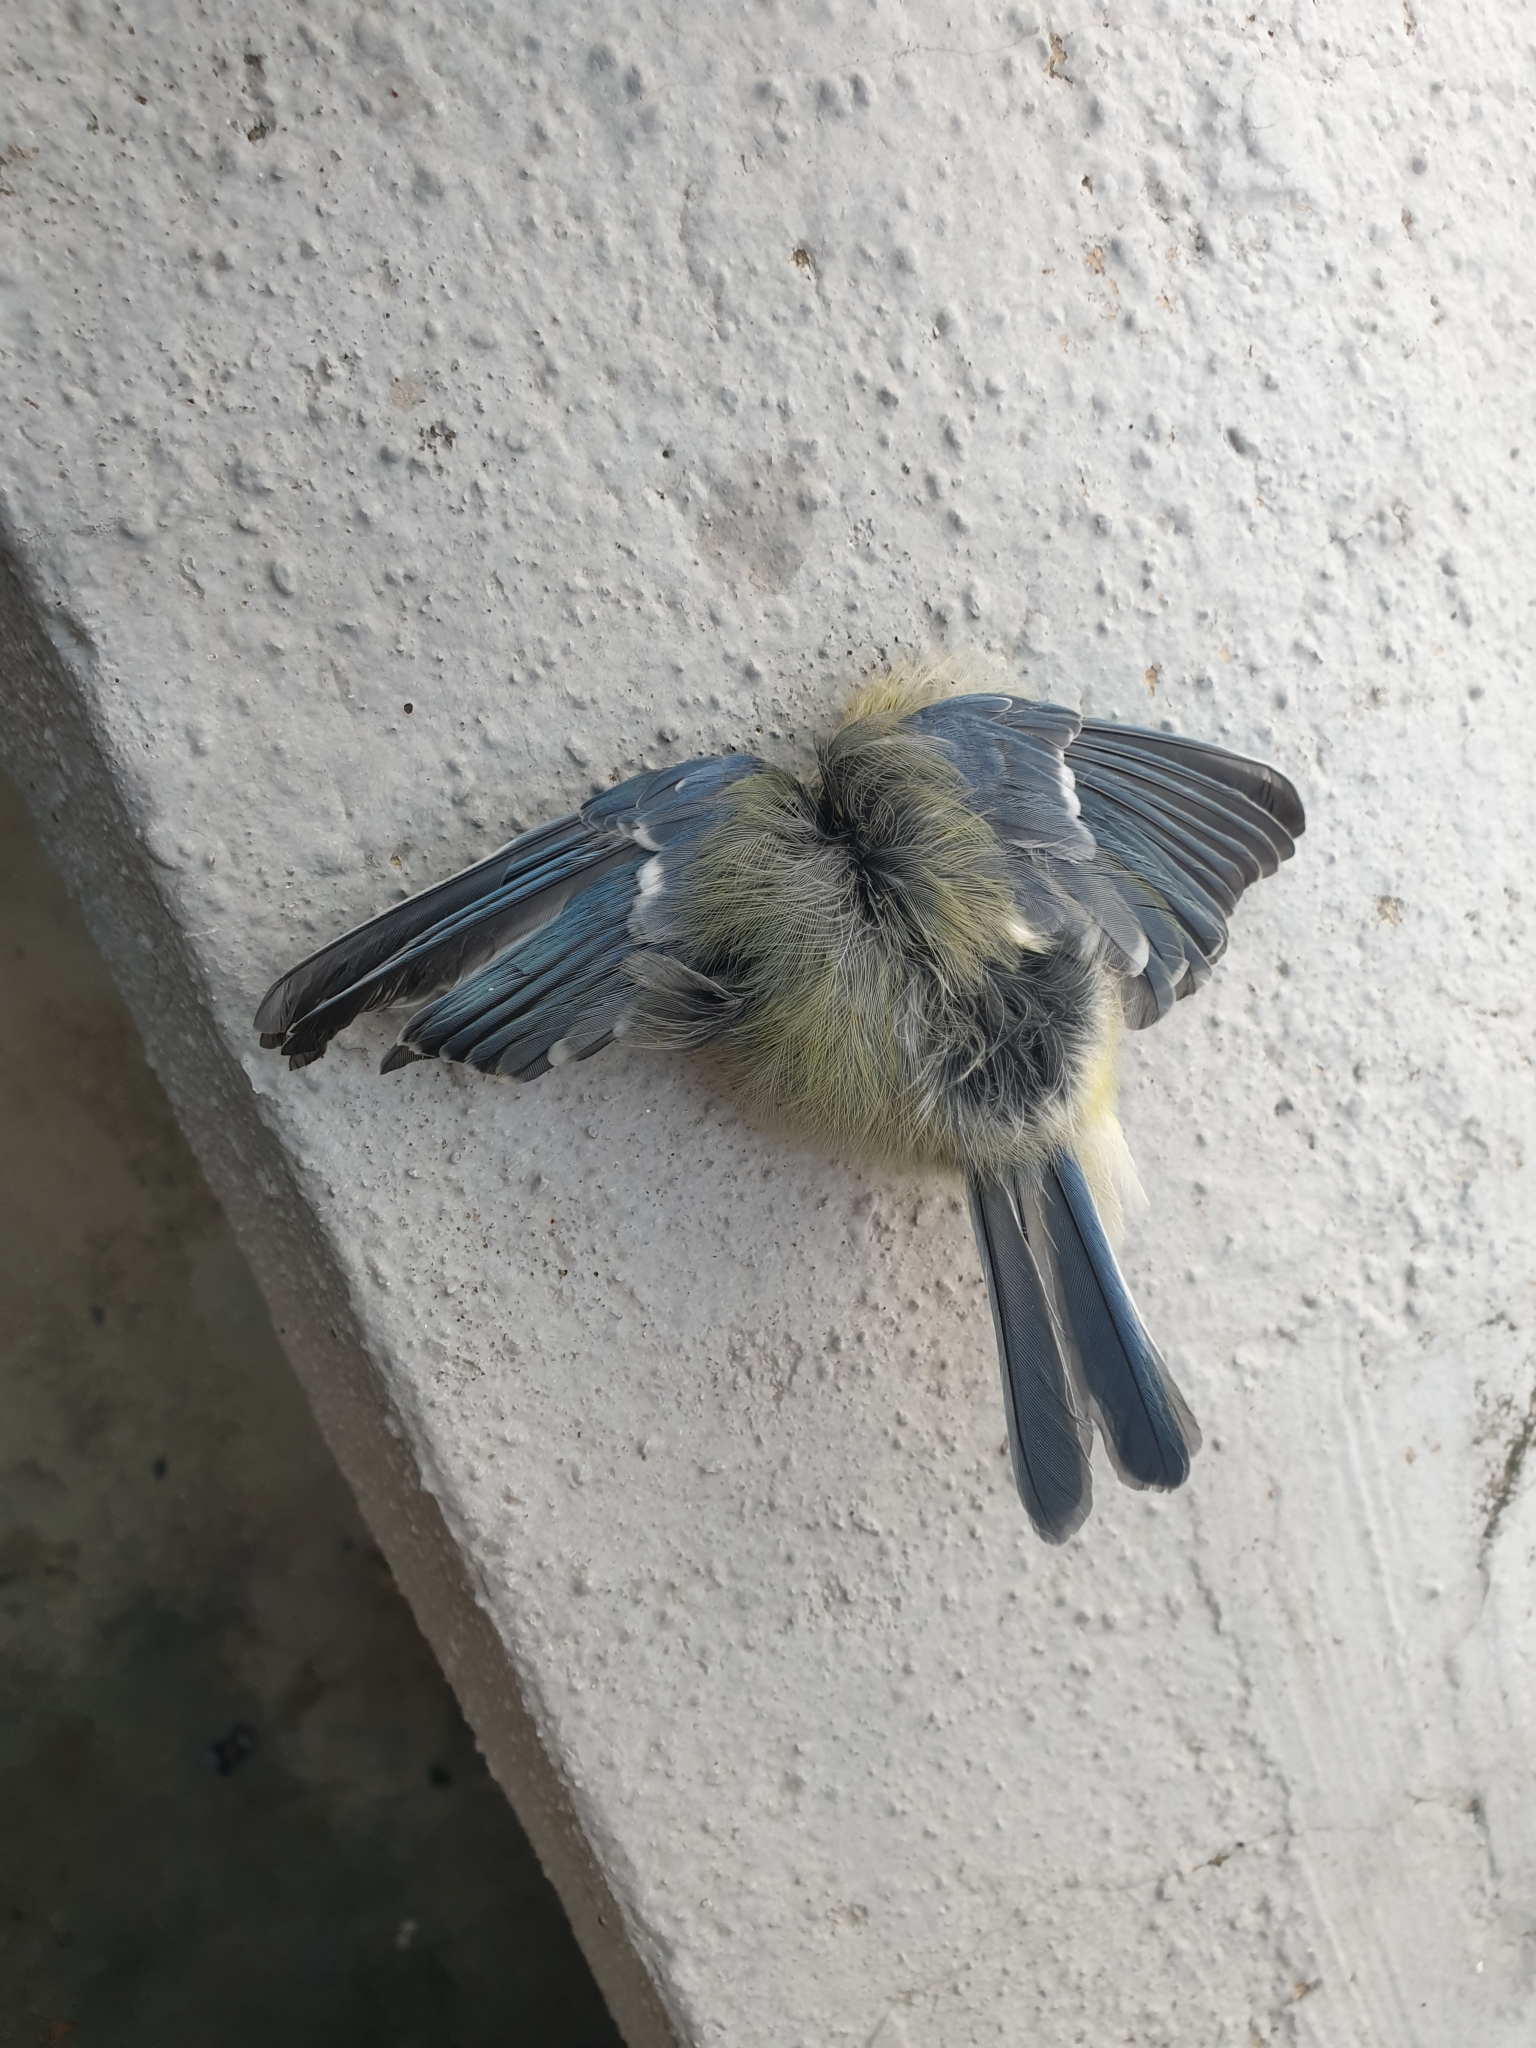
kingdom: Animalia
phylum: Chordata
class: Aves
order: Passeriformes
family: Paridae
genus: Parus
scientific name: Parus major
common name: Great tit
